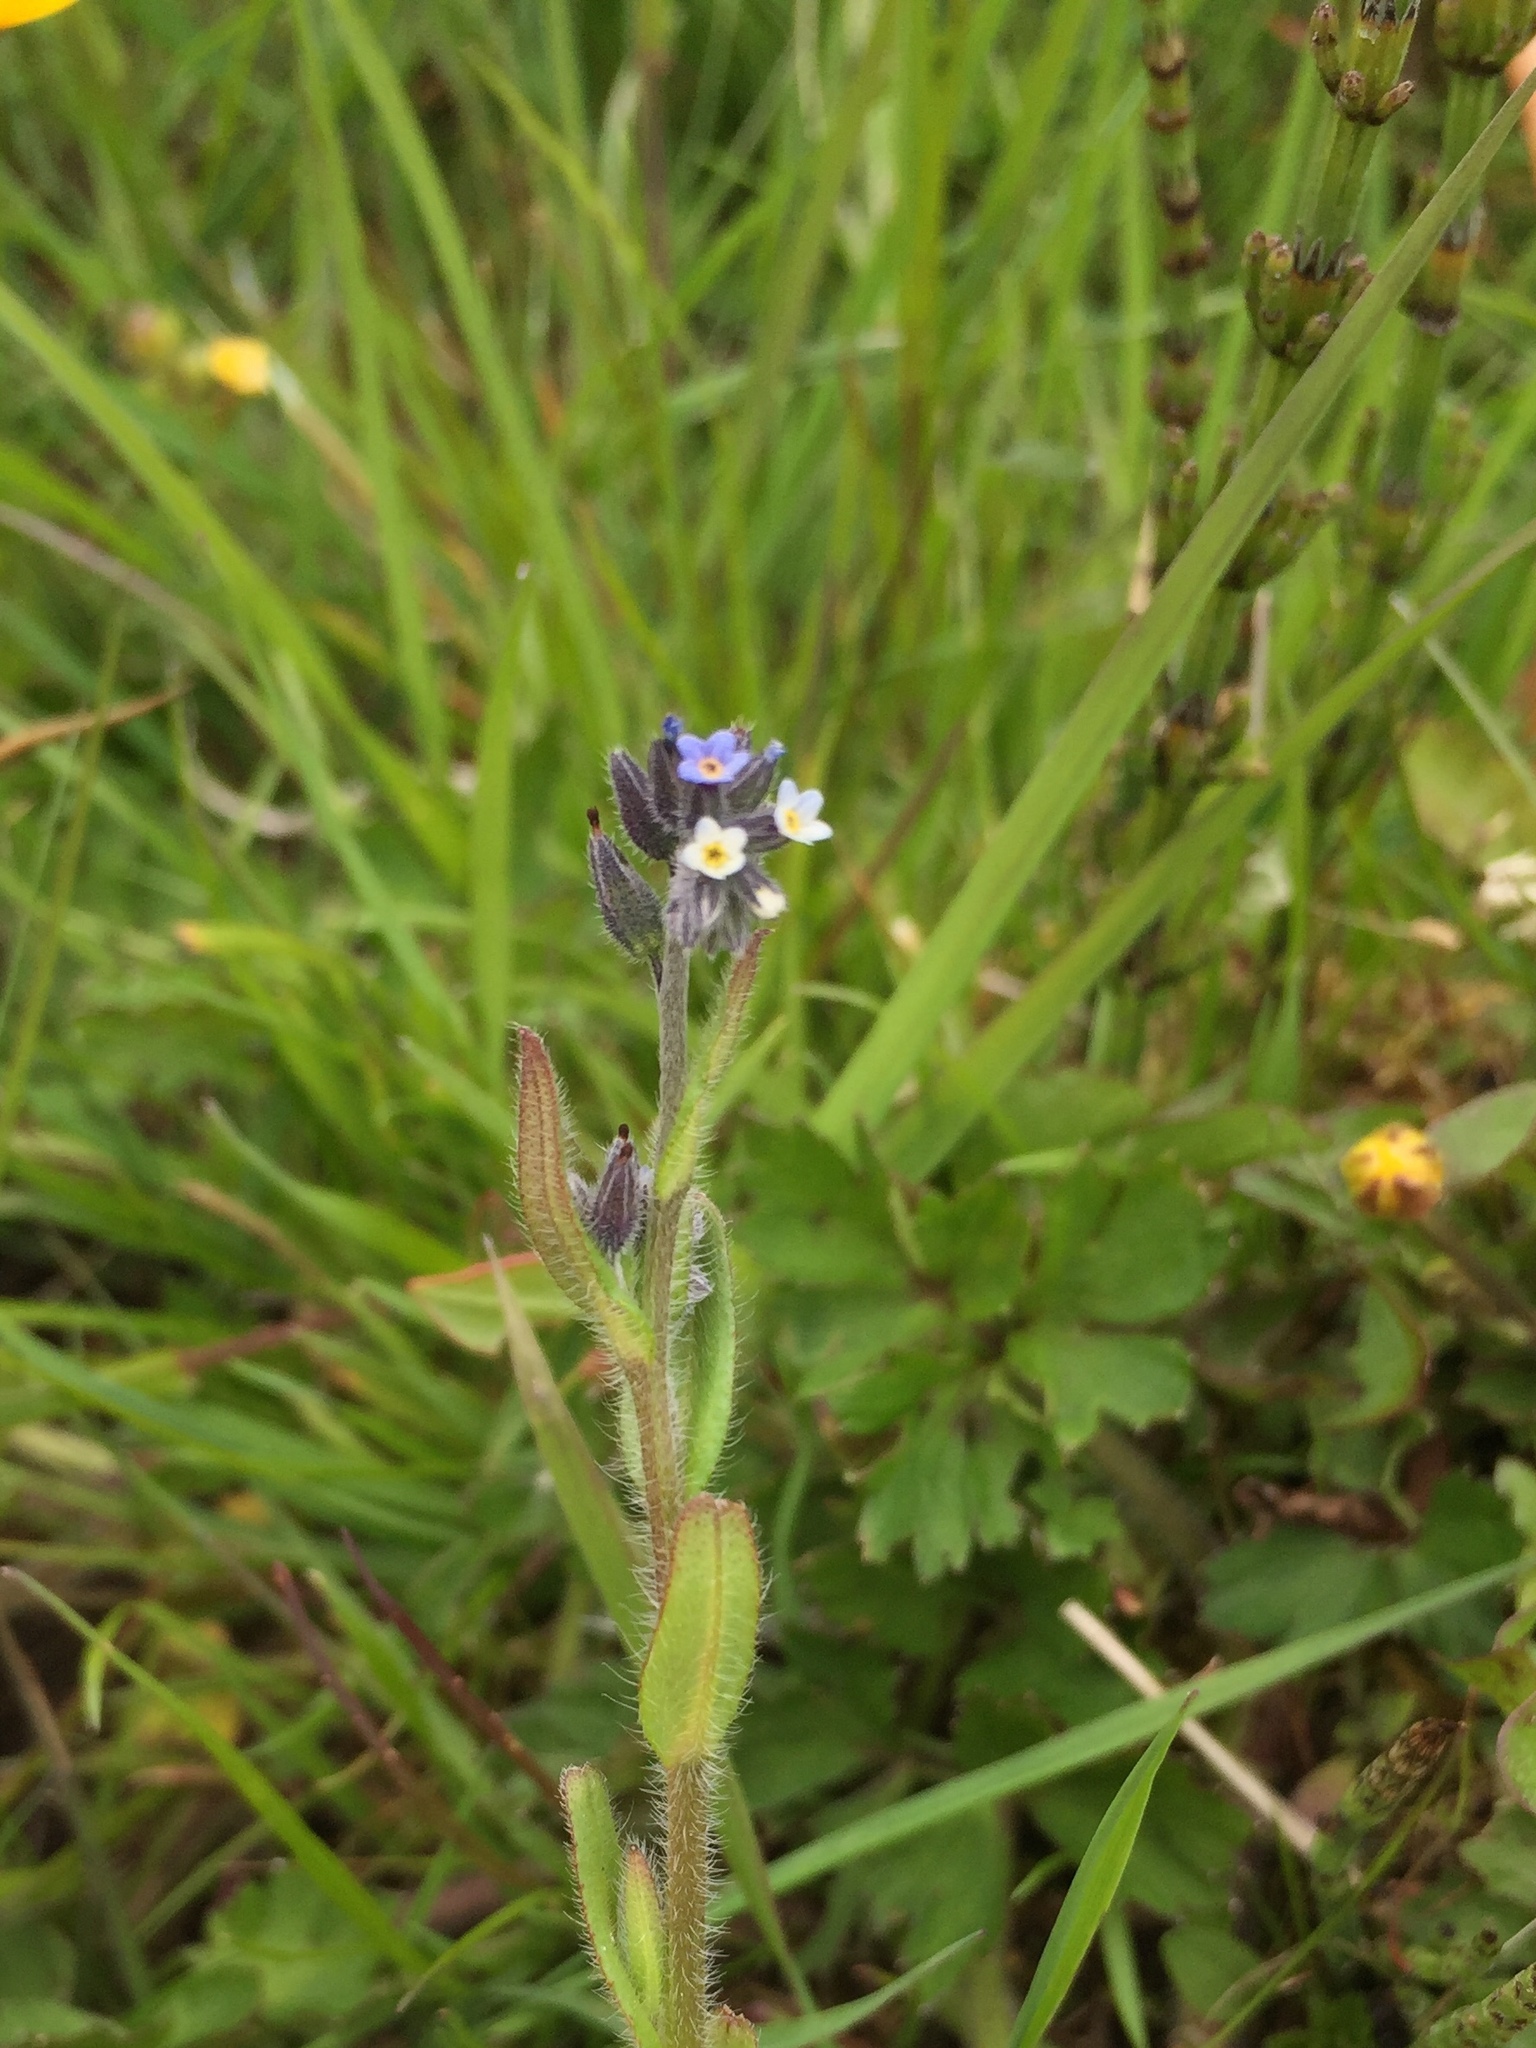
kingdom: Plantae
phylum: Tracheophyta
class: Magnoliopsida
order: Boraginales
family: Boraginaceae
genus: Myosotis
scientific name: Myosotis discolor
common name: Changing forget-me-not
